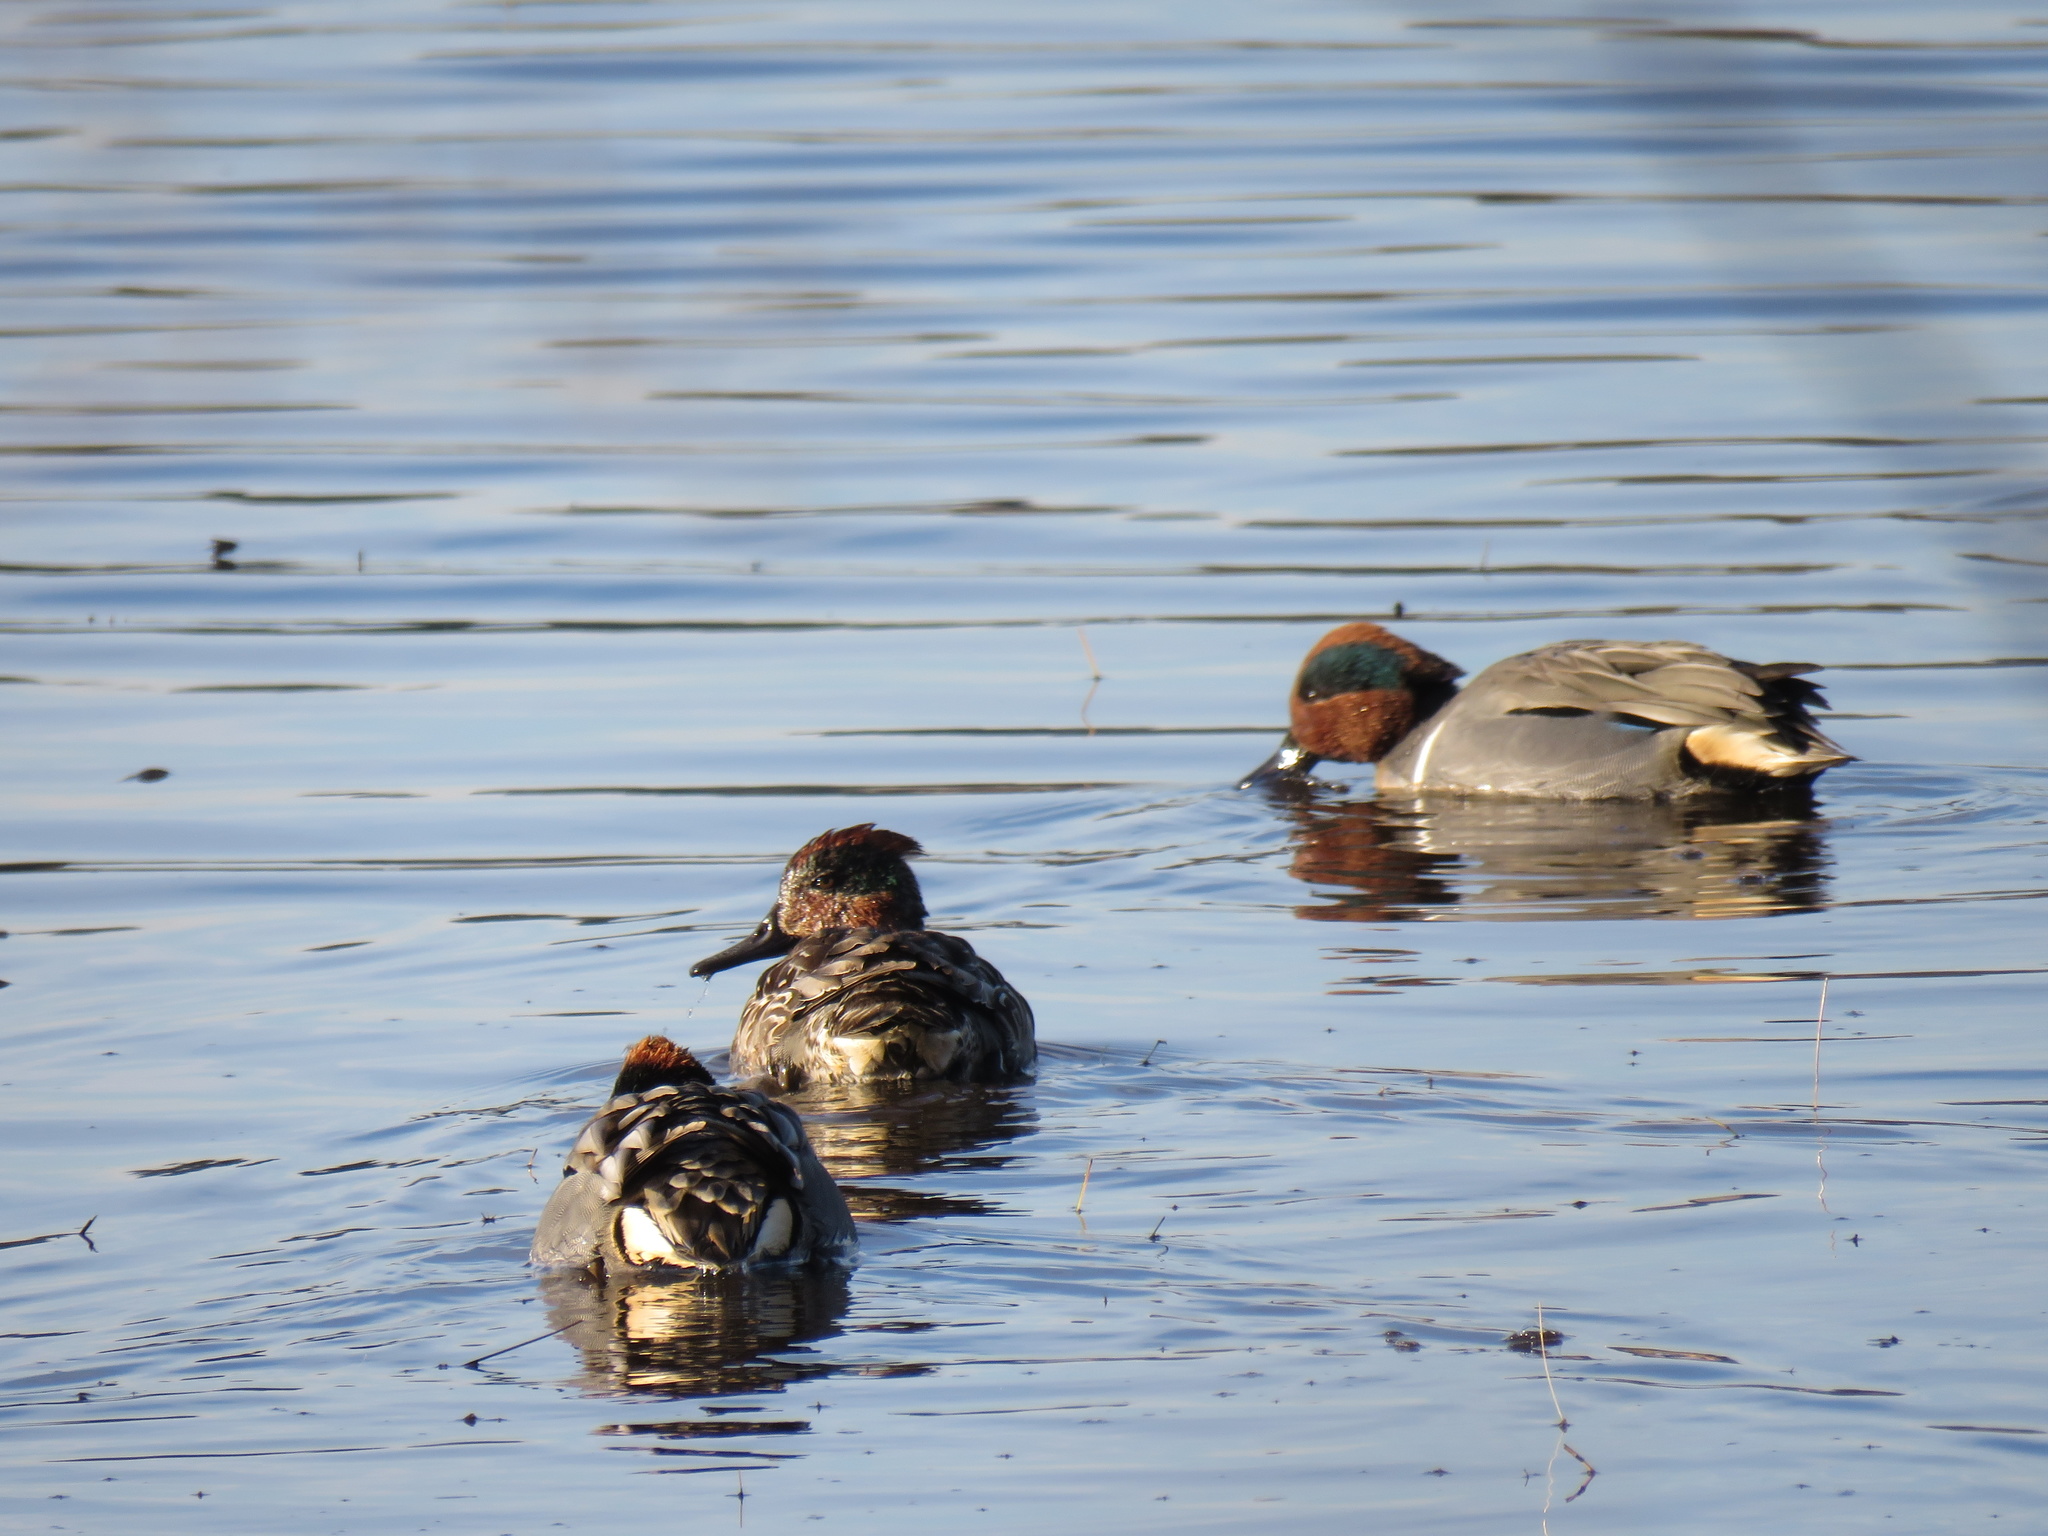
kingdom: Animalia
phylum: Chordata
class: Aves
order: Anseriformes
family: Anatidae
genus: Anas
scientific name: Anas crecca
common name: Eurasian teal
